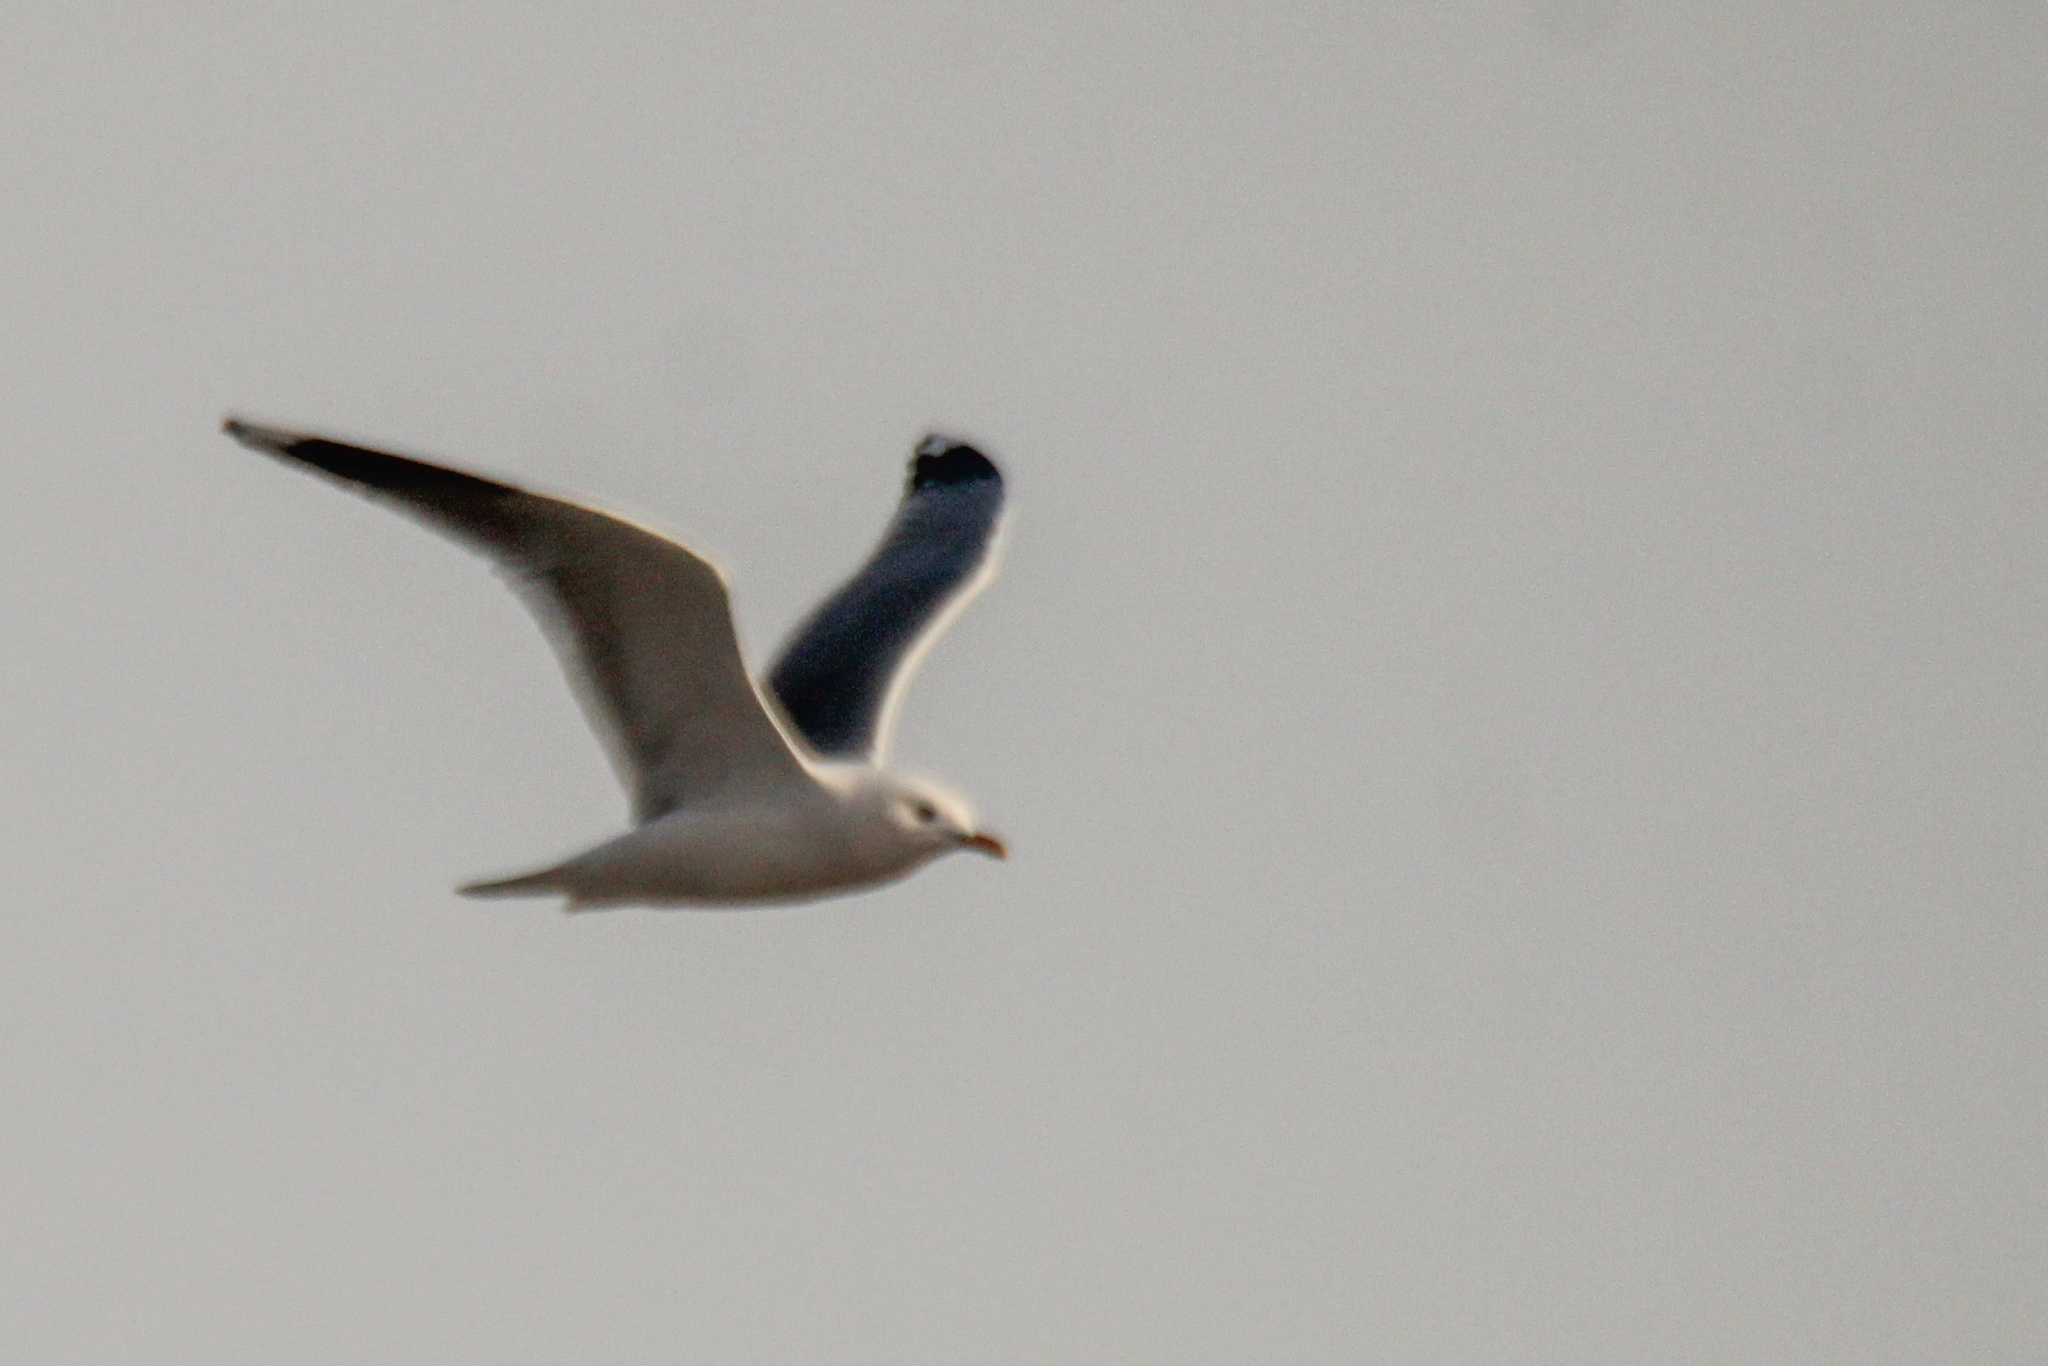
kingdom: Animalia
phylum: Chordata
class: Aves
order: Charadriiformes
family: Laridae
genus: Larus
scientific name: Larus canus
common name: Mew gull
